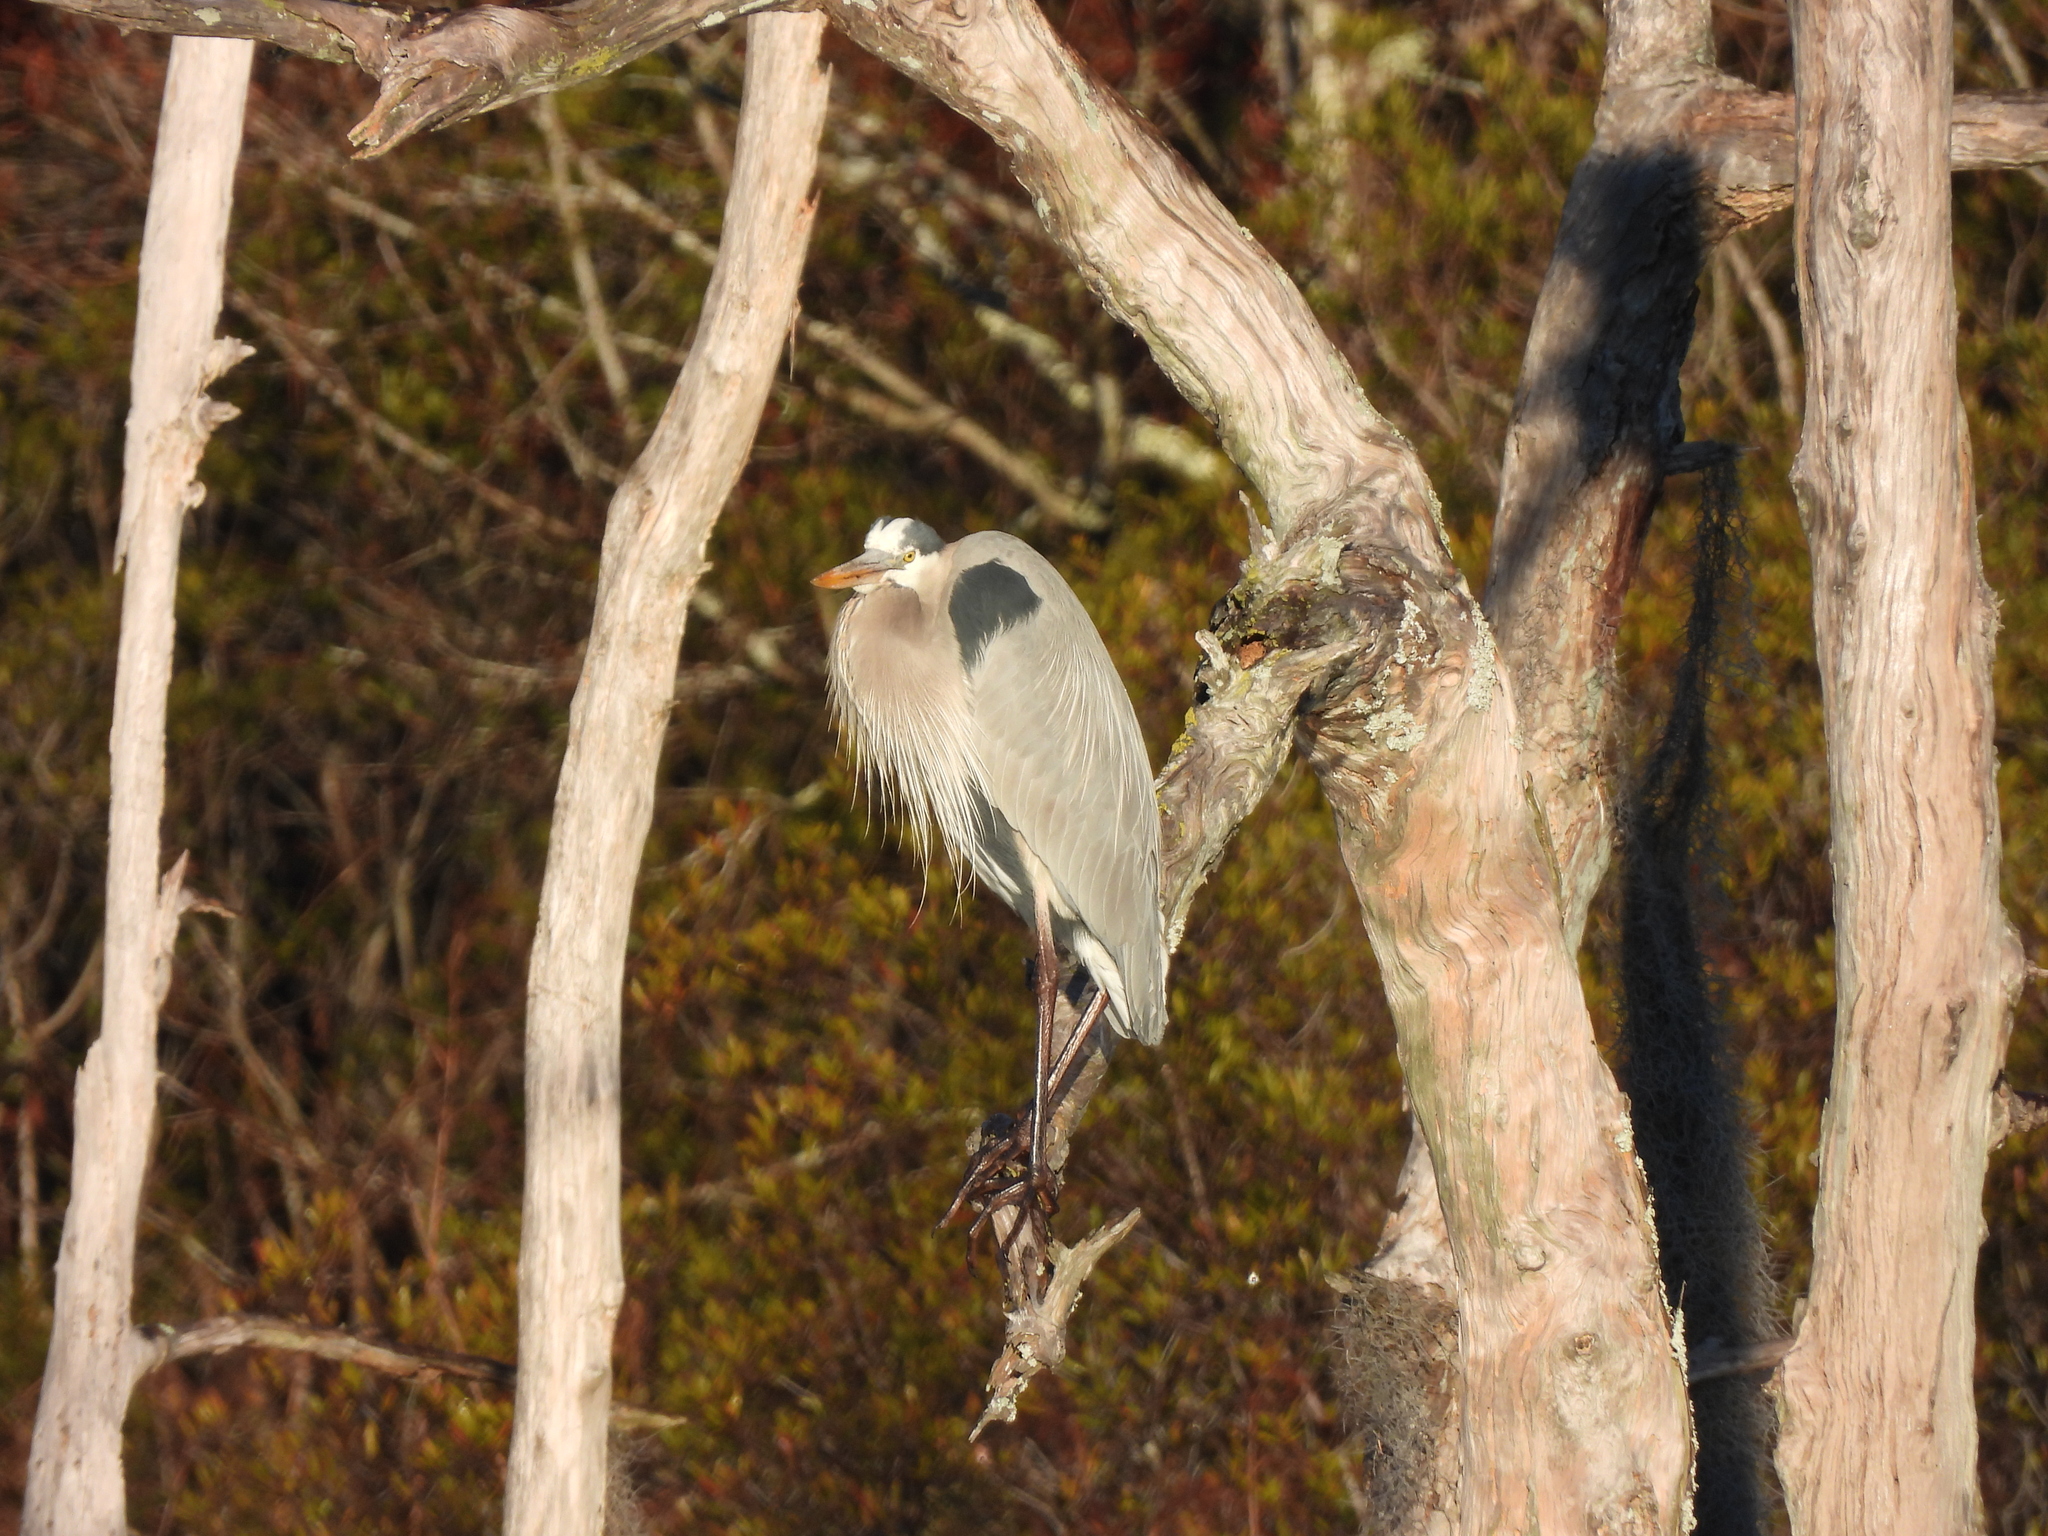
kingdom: Animalia
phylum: Chordata
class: Aves
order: Pelecaniformes
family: Ardeidae
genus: Ardea
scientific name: Ardea herodias
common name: Great blue heron
